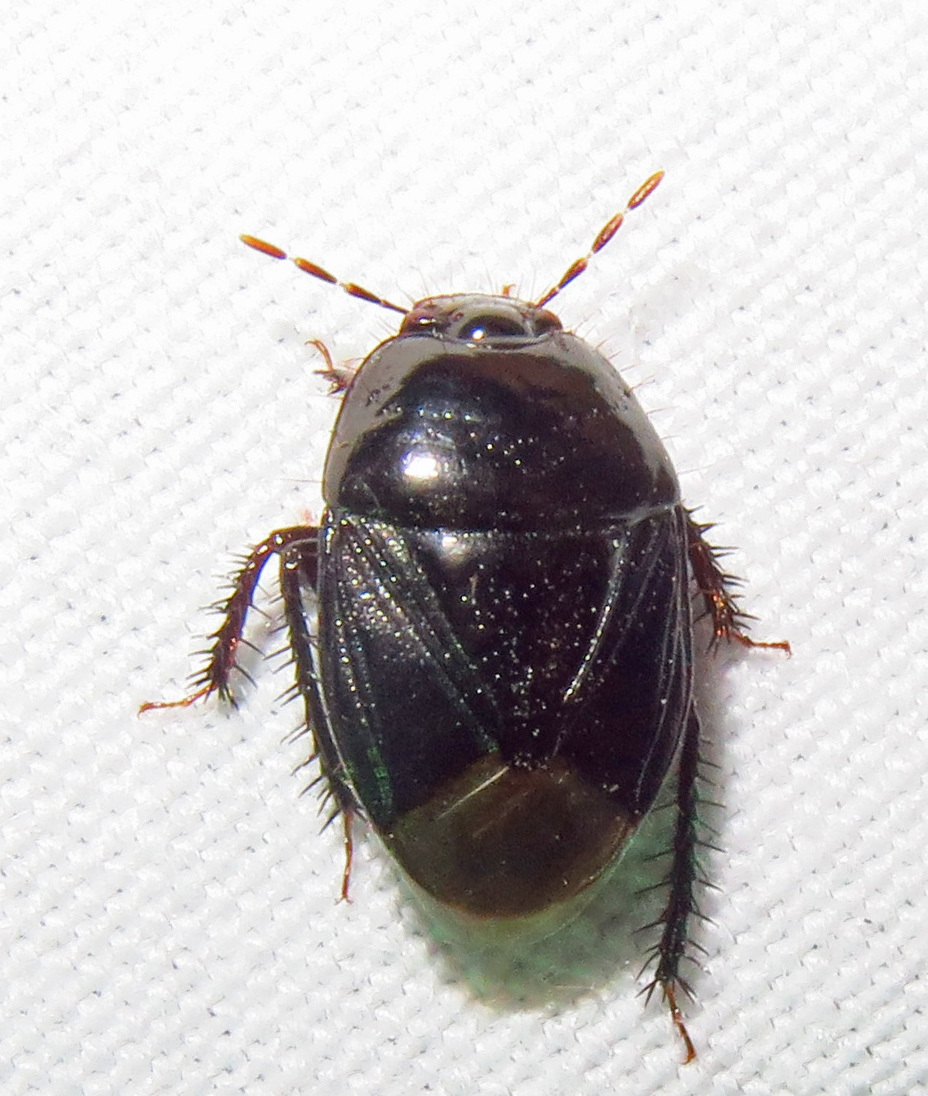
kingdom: Animalia
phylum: Arthropoda
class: Insecta
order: Hemiptera
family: Cydnidae
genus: Pangaeus
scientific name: Pangaeus bilineatus
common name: Burrower bug
